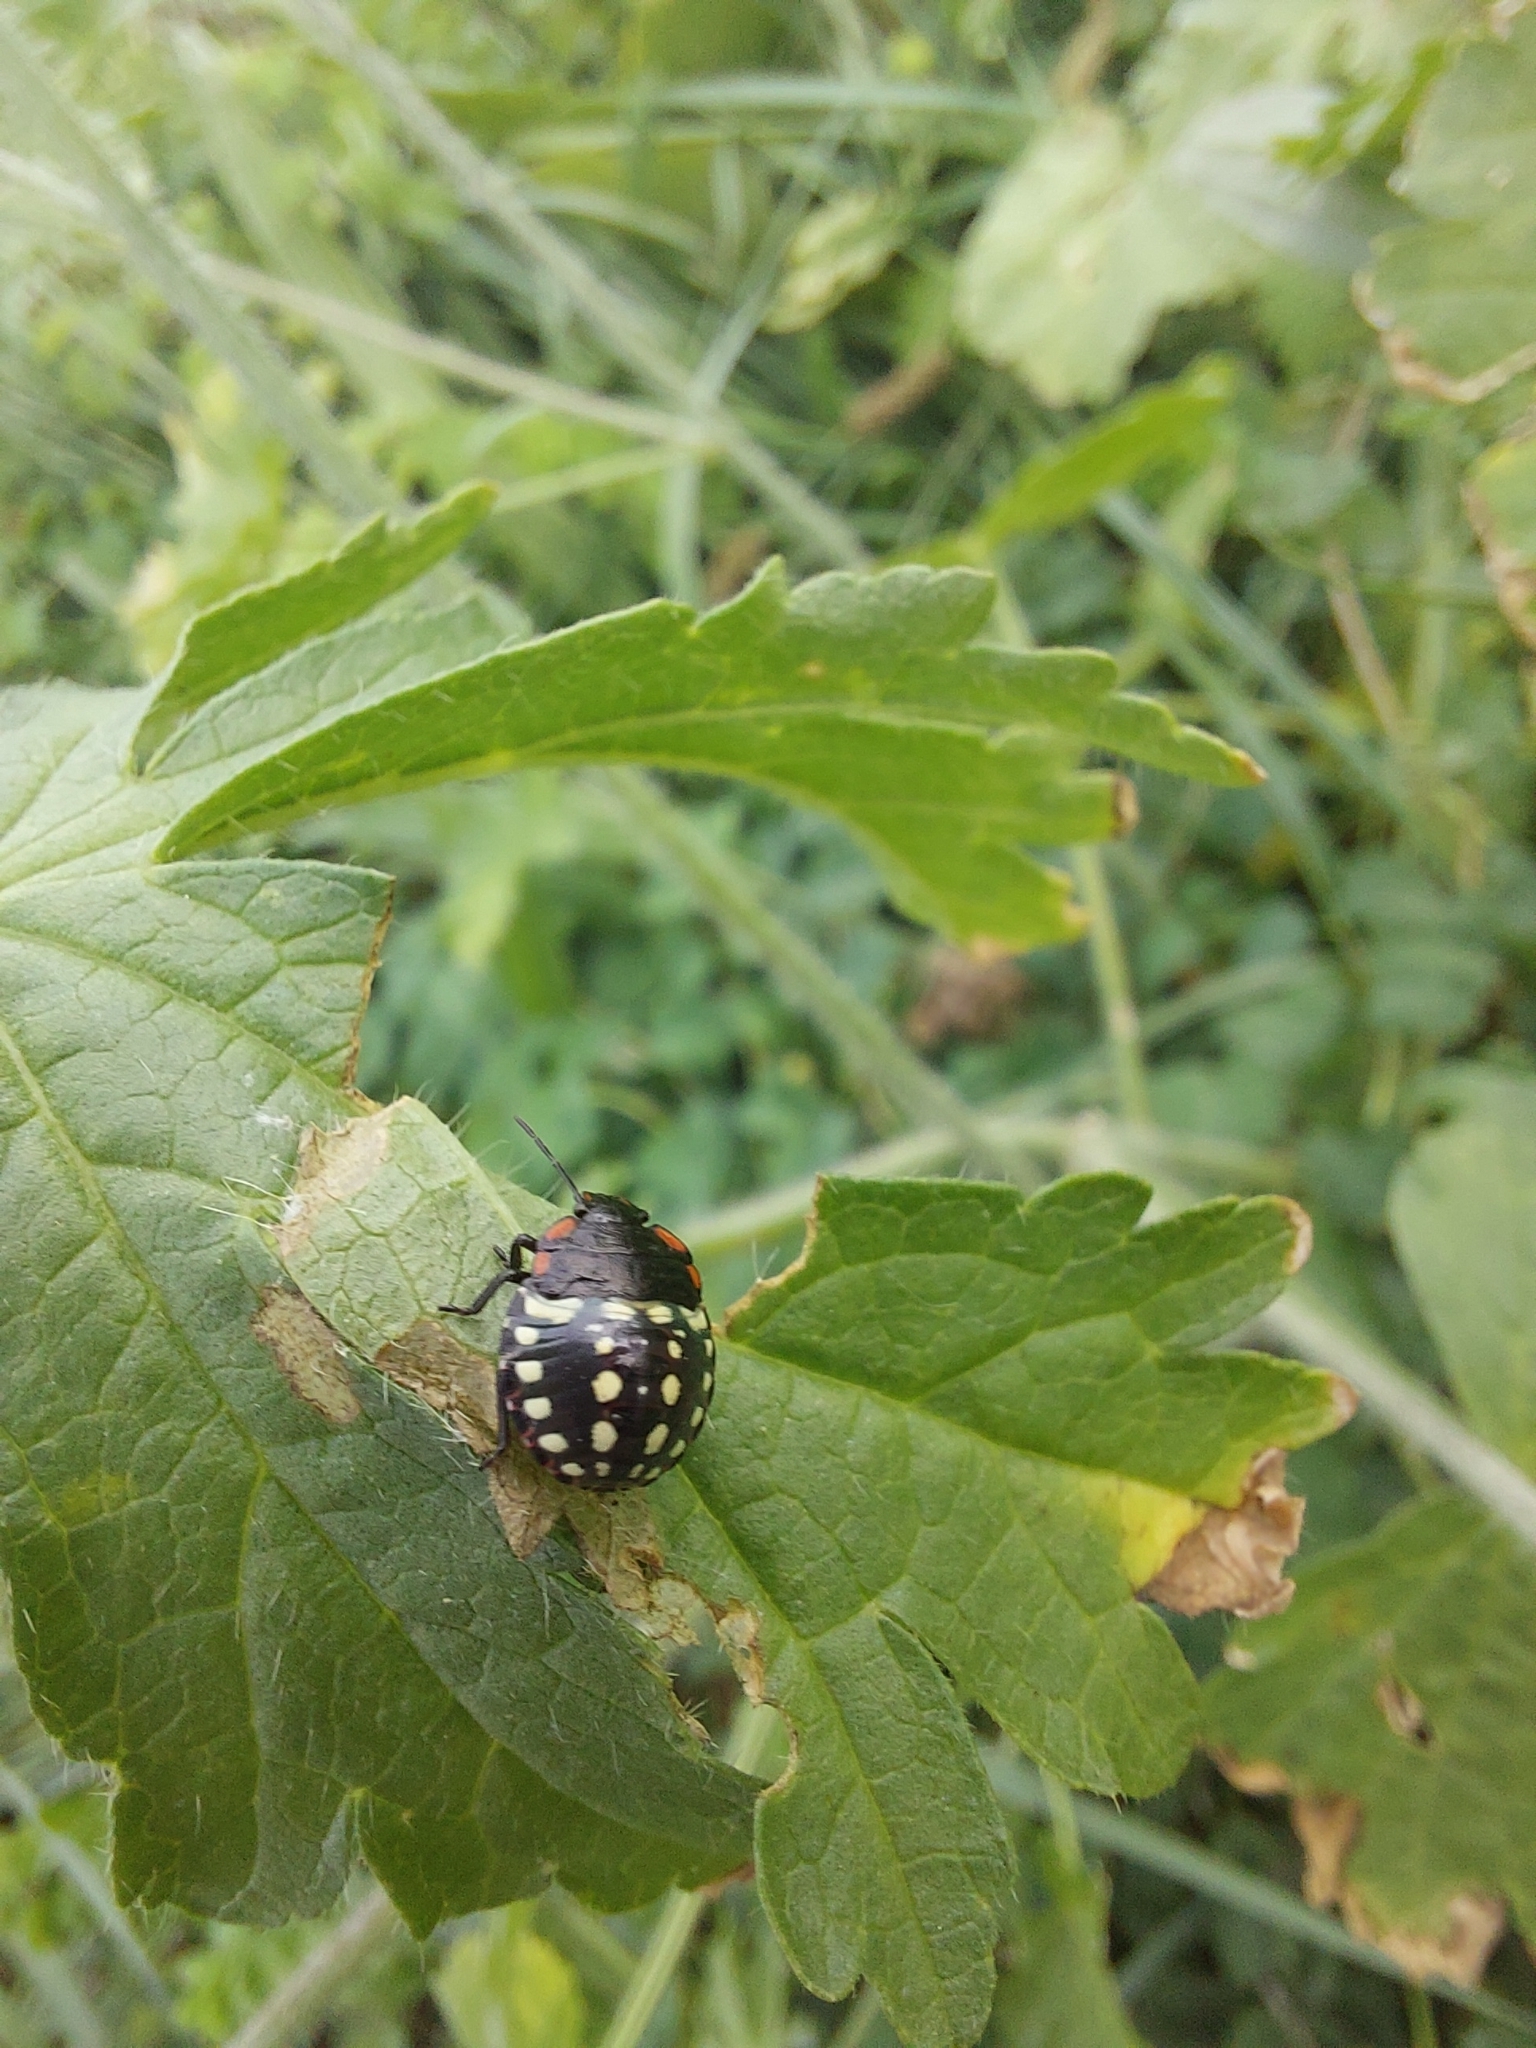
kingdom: Animalia
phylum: Arthropoda
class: Insecta
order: Hemiptera
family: Pentatomidae
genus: Nezara
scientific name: Nezara viridula
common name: Southern green stink bug
